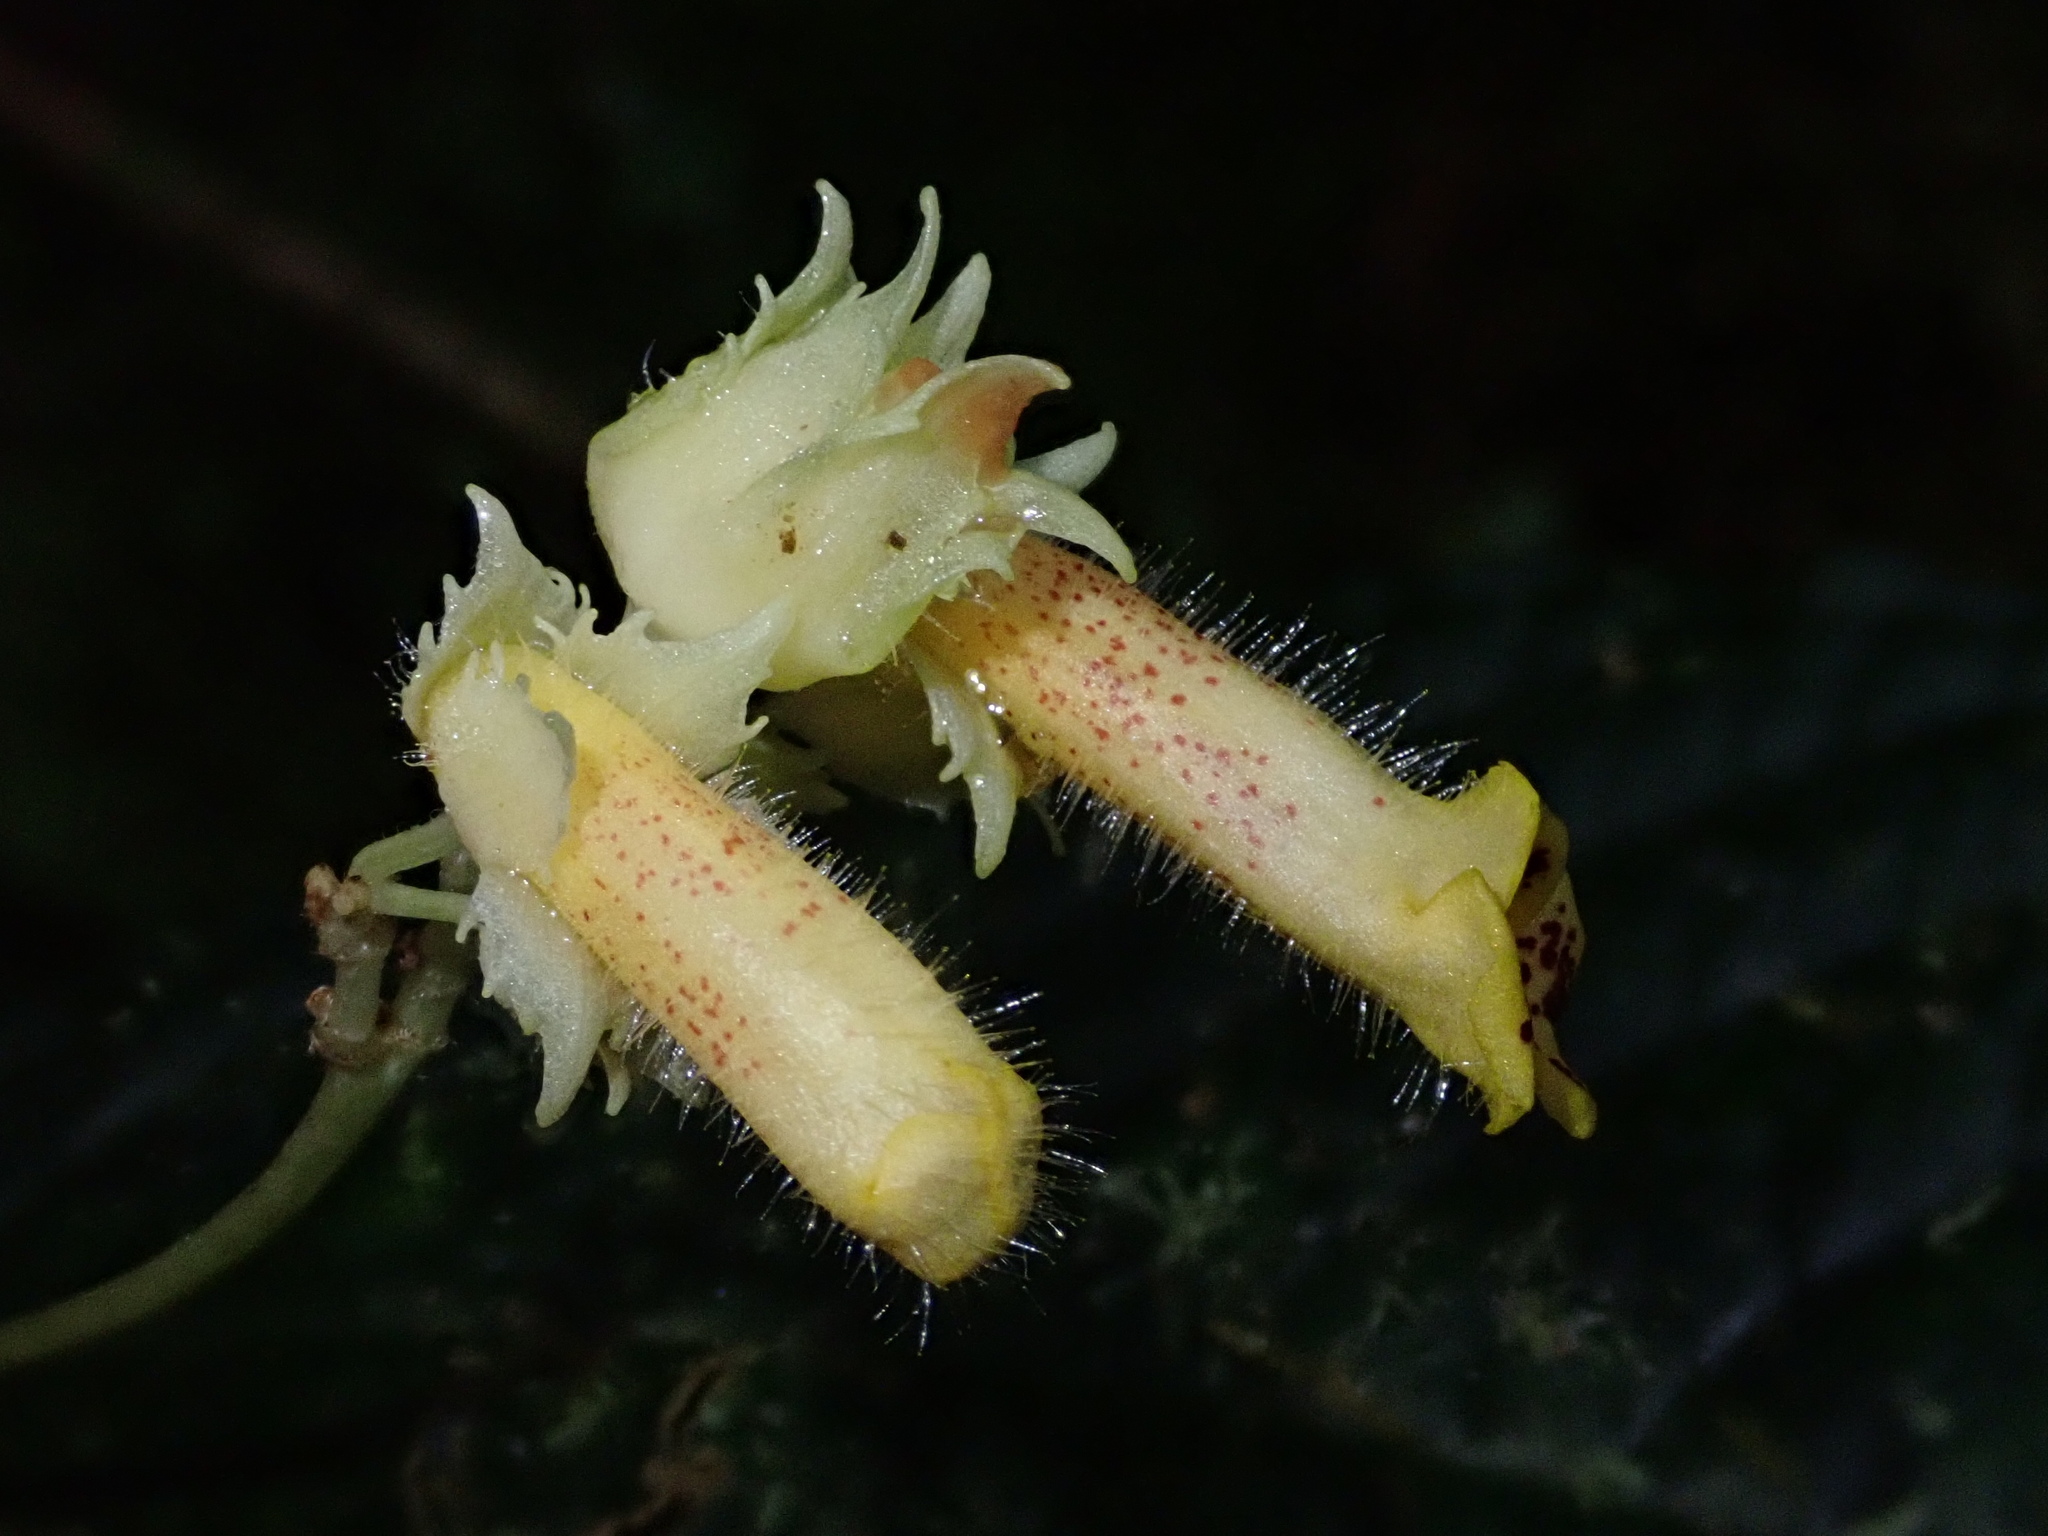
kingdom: Plantae
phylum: Tracheophyta
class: Magnoliopsida
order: Lamiales
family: Gesneriaceae
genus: Gasteranthus
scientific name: Gasteranthus wendlandianus
